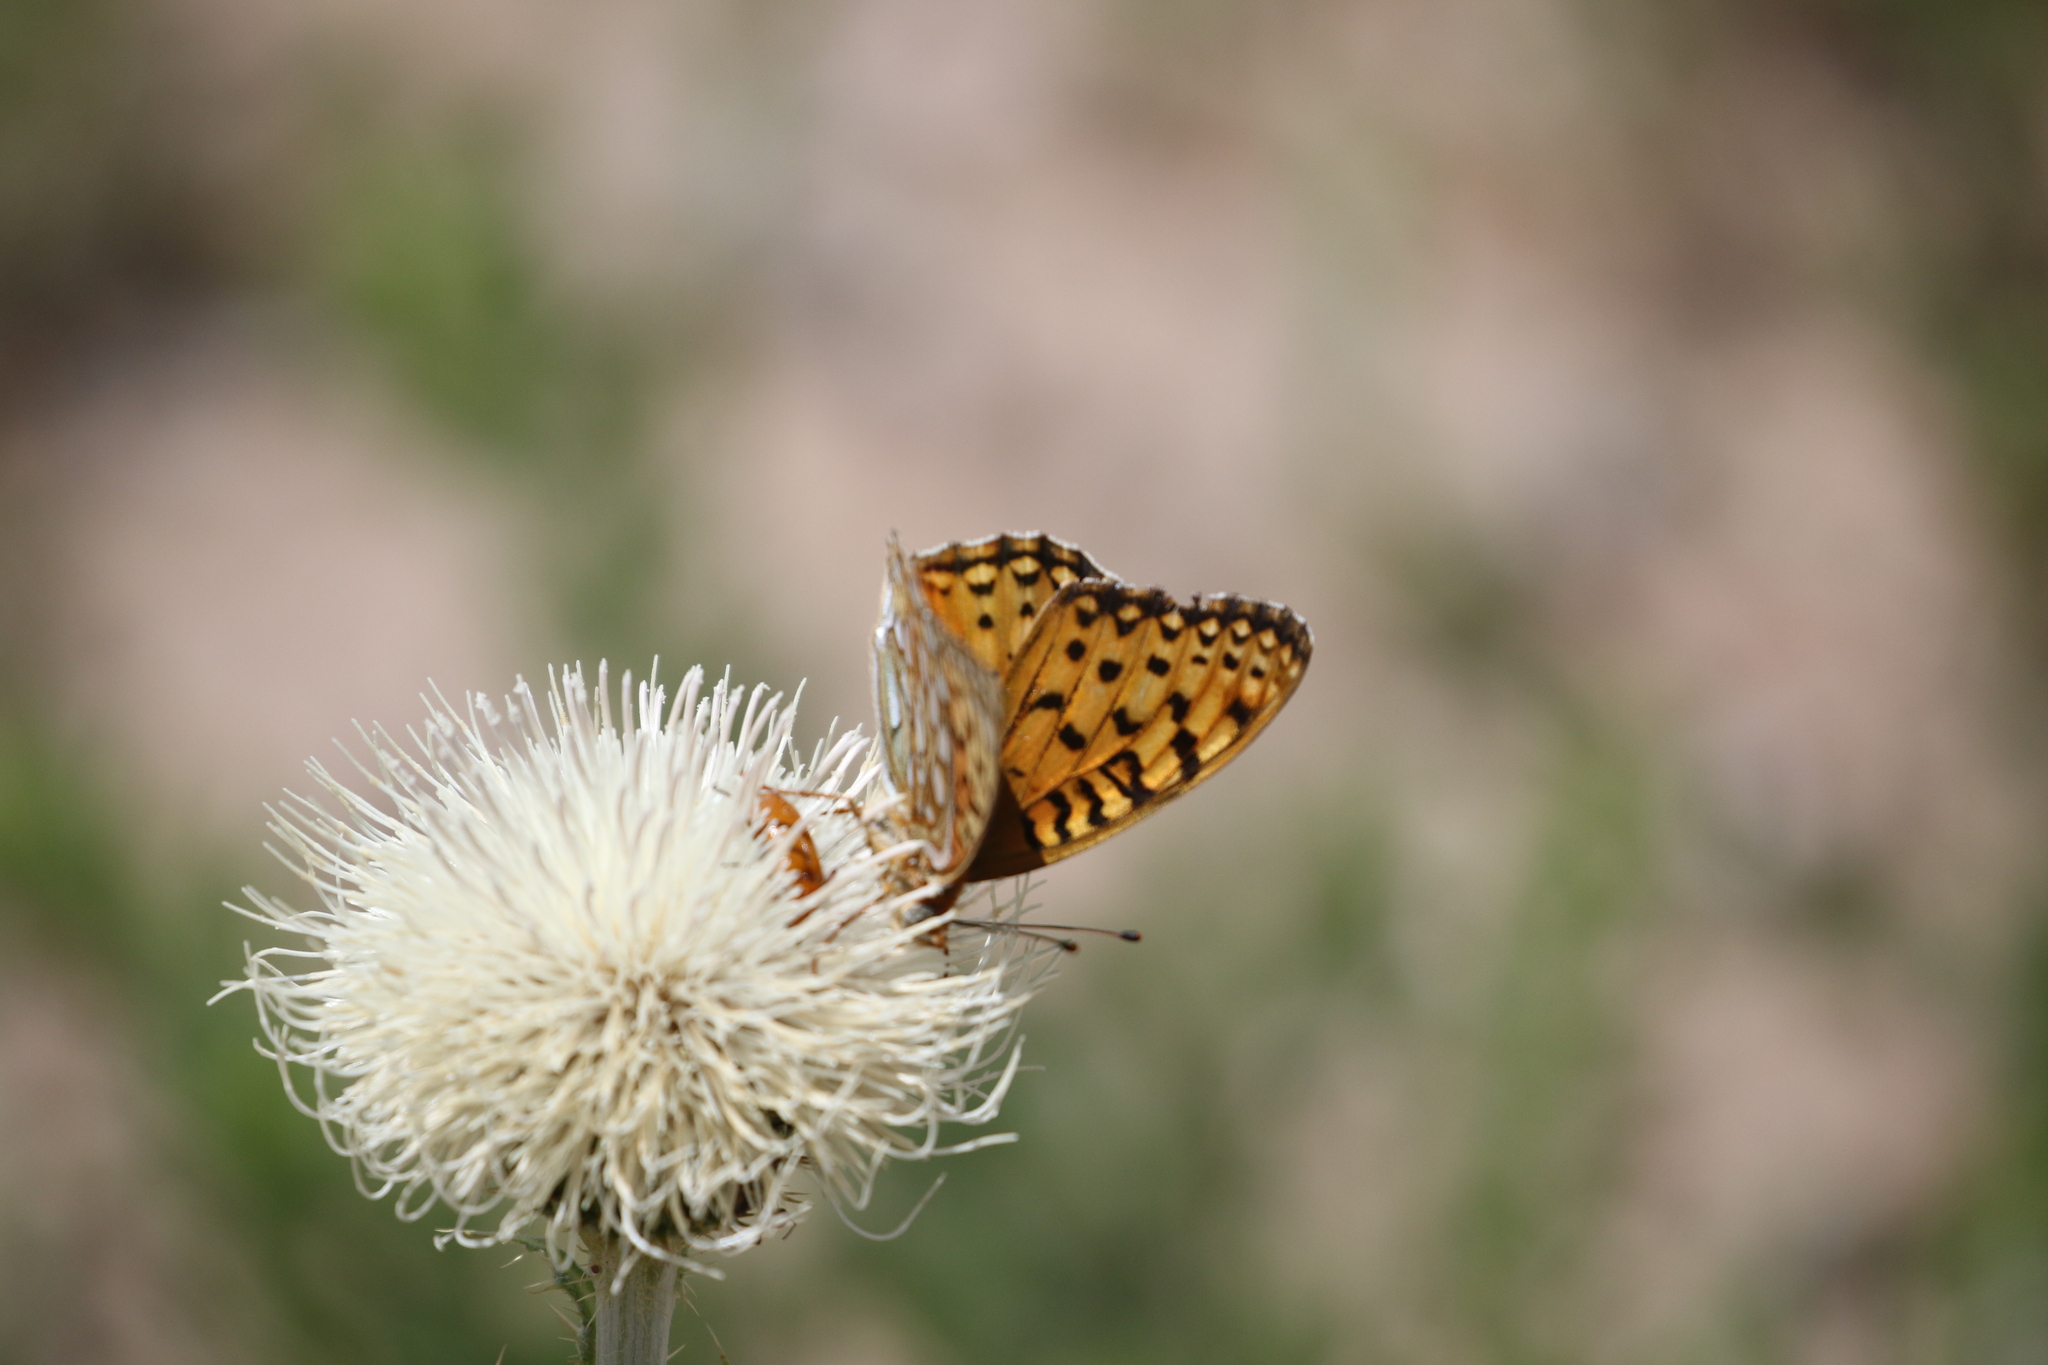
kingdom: Animalia
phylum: Arthropoda
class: Insecta
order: Lepidoptera
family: Nymphalidae
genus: Speyeria
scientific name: Speyeria edwardsii
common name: Edwards' fritillary
